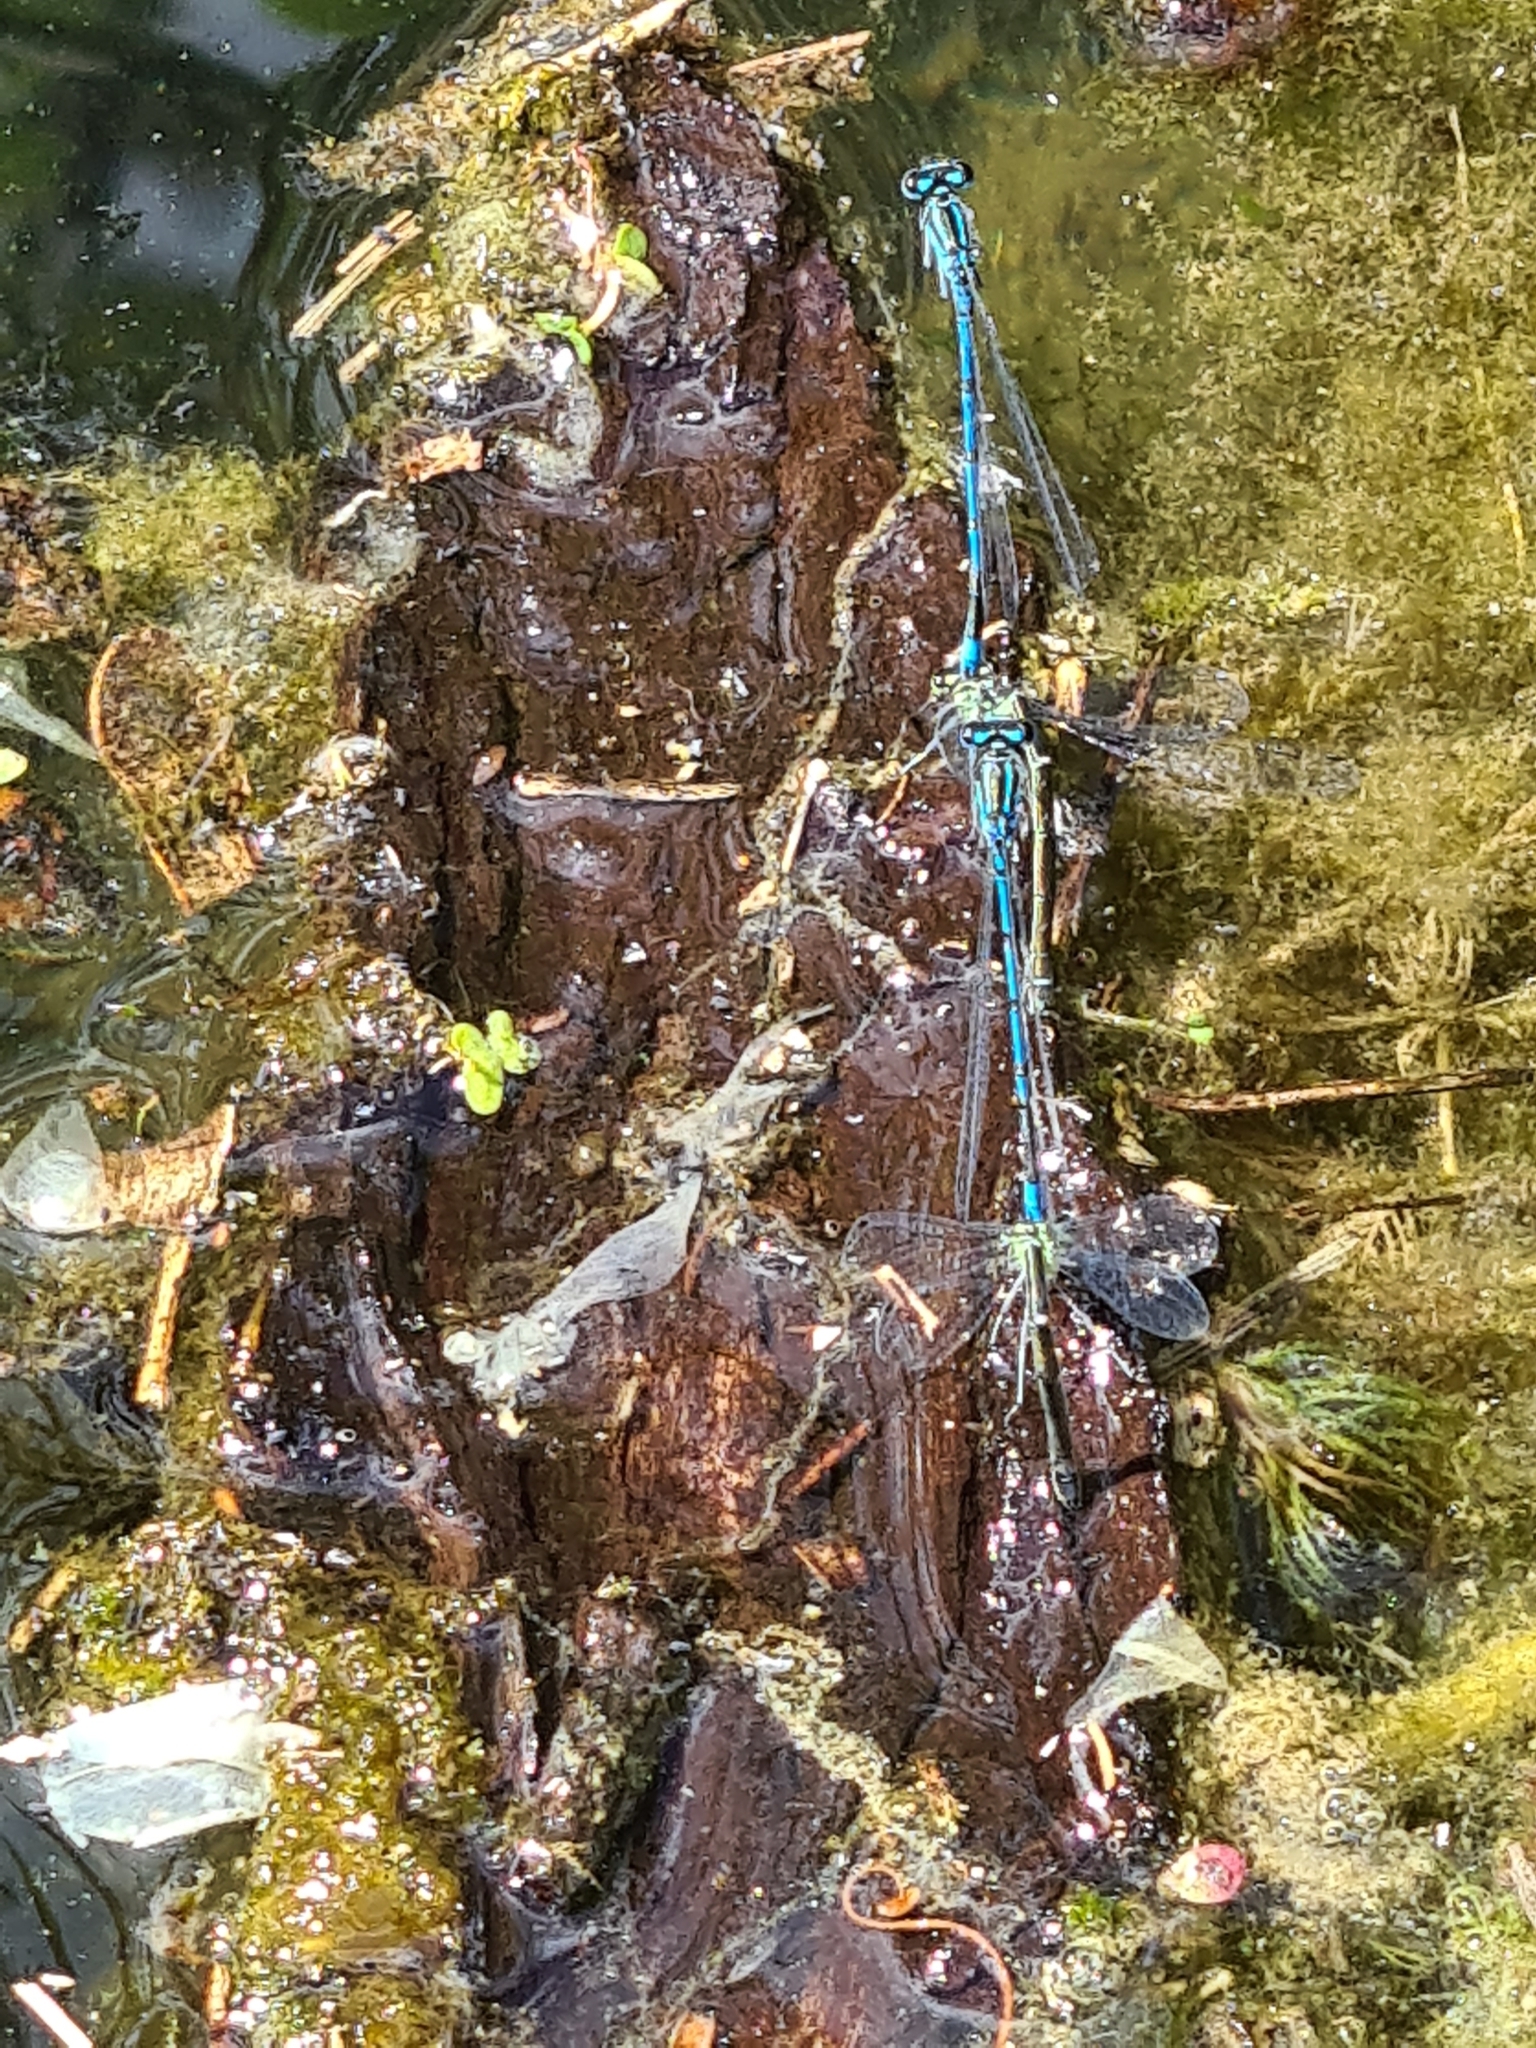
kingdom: Animalia
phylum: Arthropoda
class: Insecta
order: Odonata
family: Platycnemididae
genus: Platycnemis
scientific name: Platycnemis pennipes
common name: White-legged damselfly
